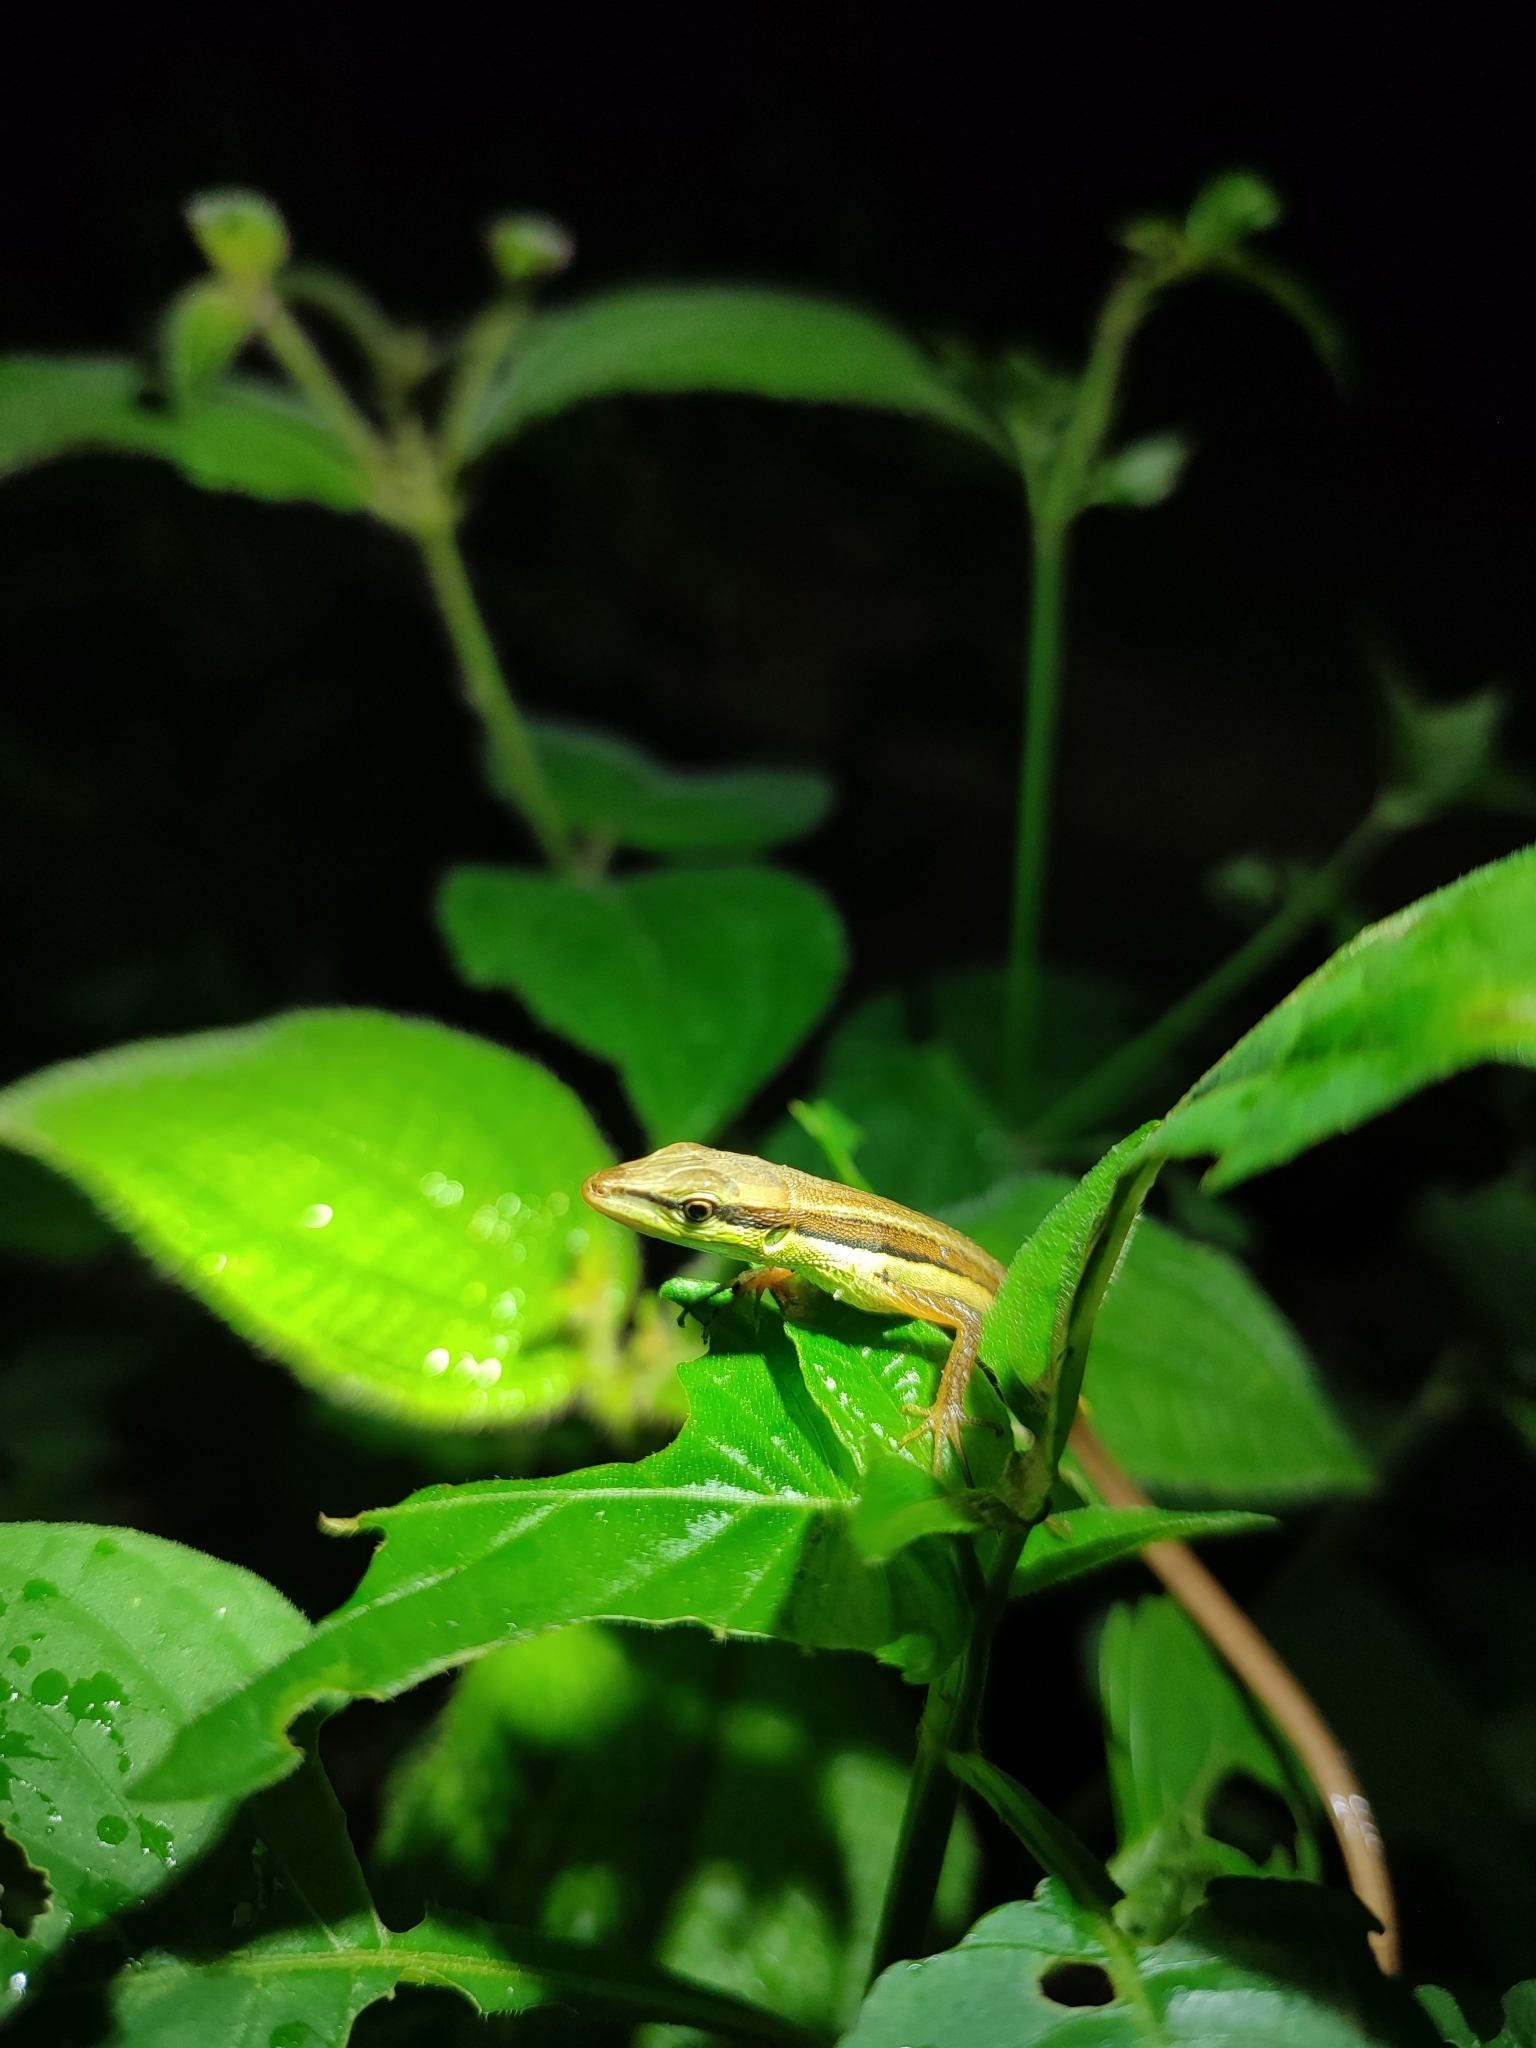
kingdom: Animalia
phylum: Chordata
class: Squamata
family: Lacertidae
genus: Takydromus
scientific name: Takydromus sexlineatus
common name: Asian grass lizard
